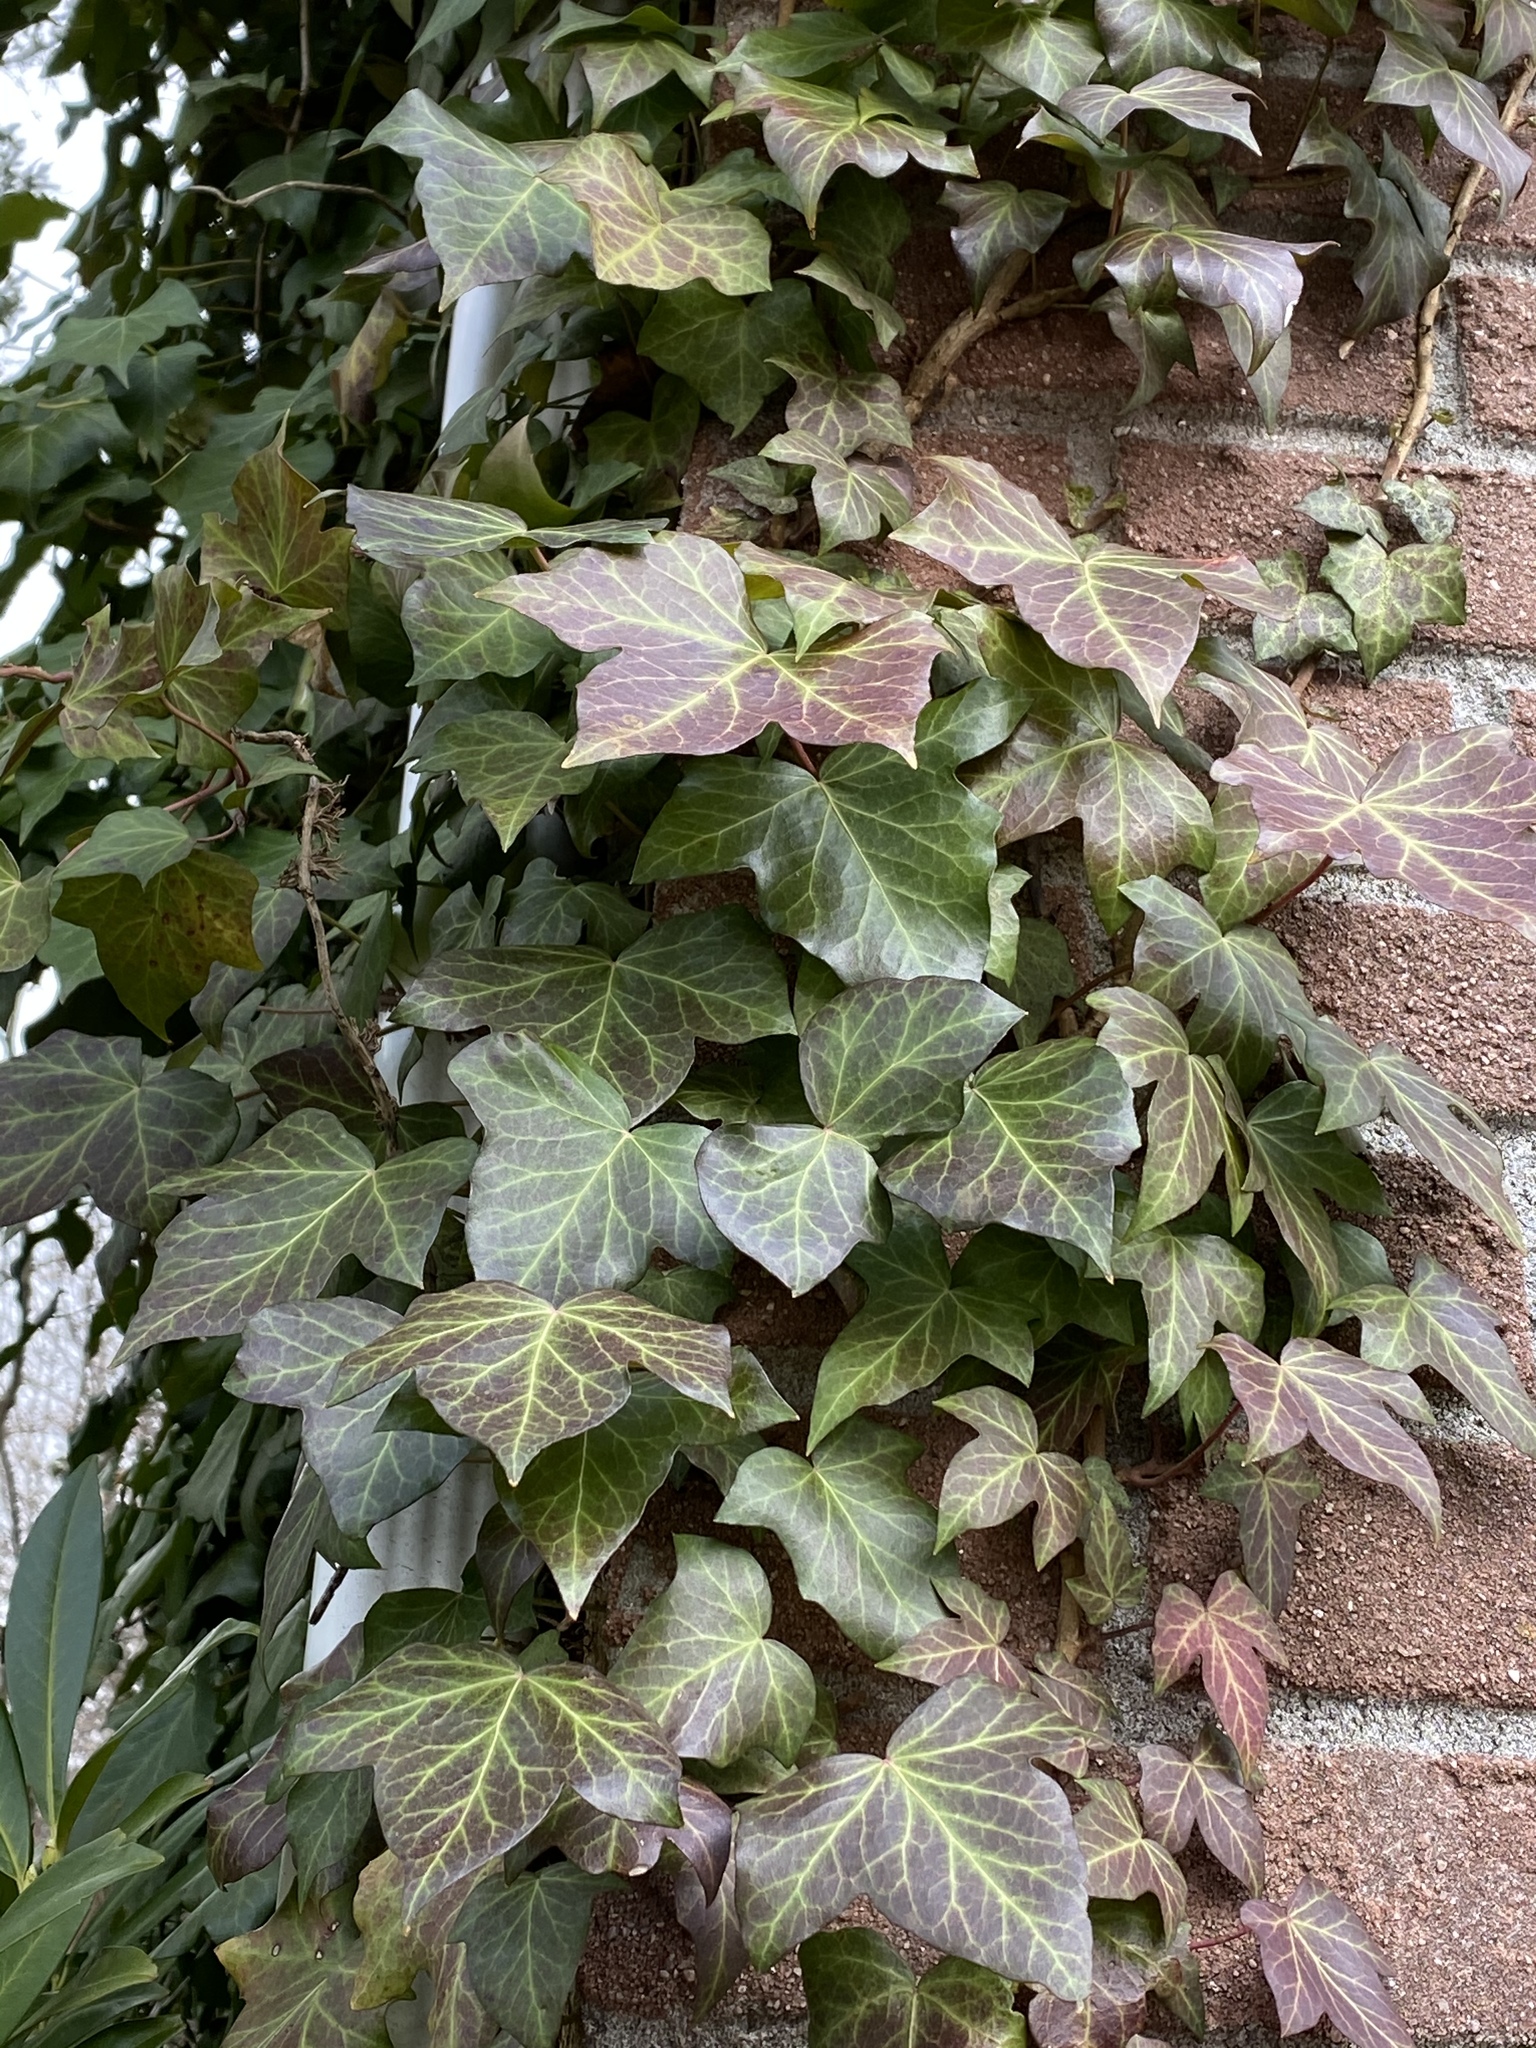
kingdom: Plantae
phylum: Tracheophyta
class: Magnoliopsida
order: Apiales
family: Araliaceae
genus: Hedera
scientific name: Hedera
